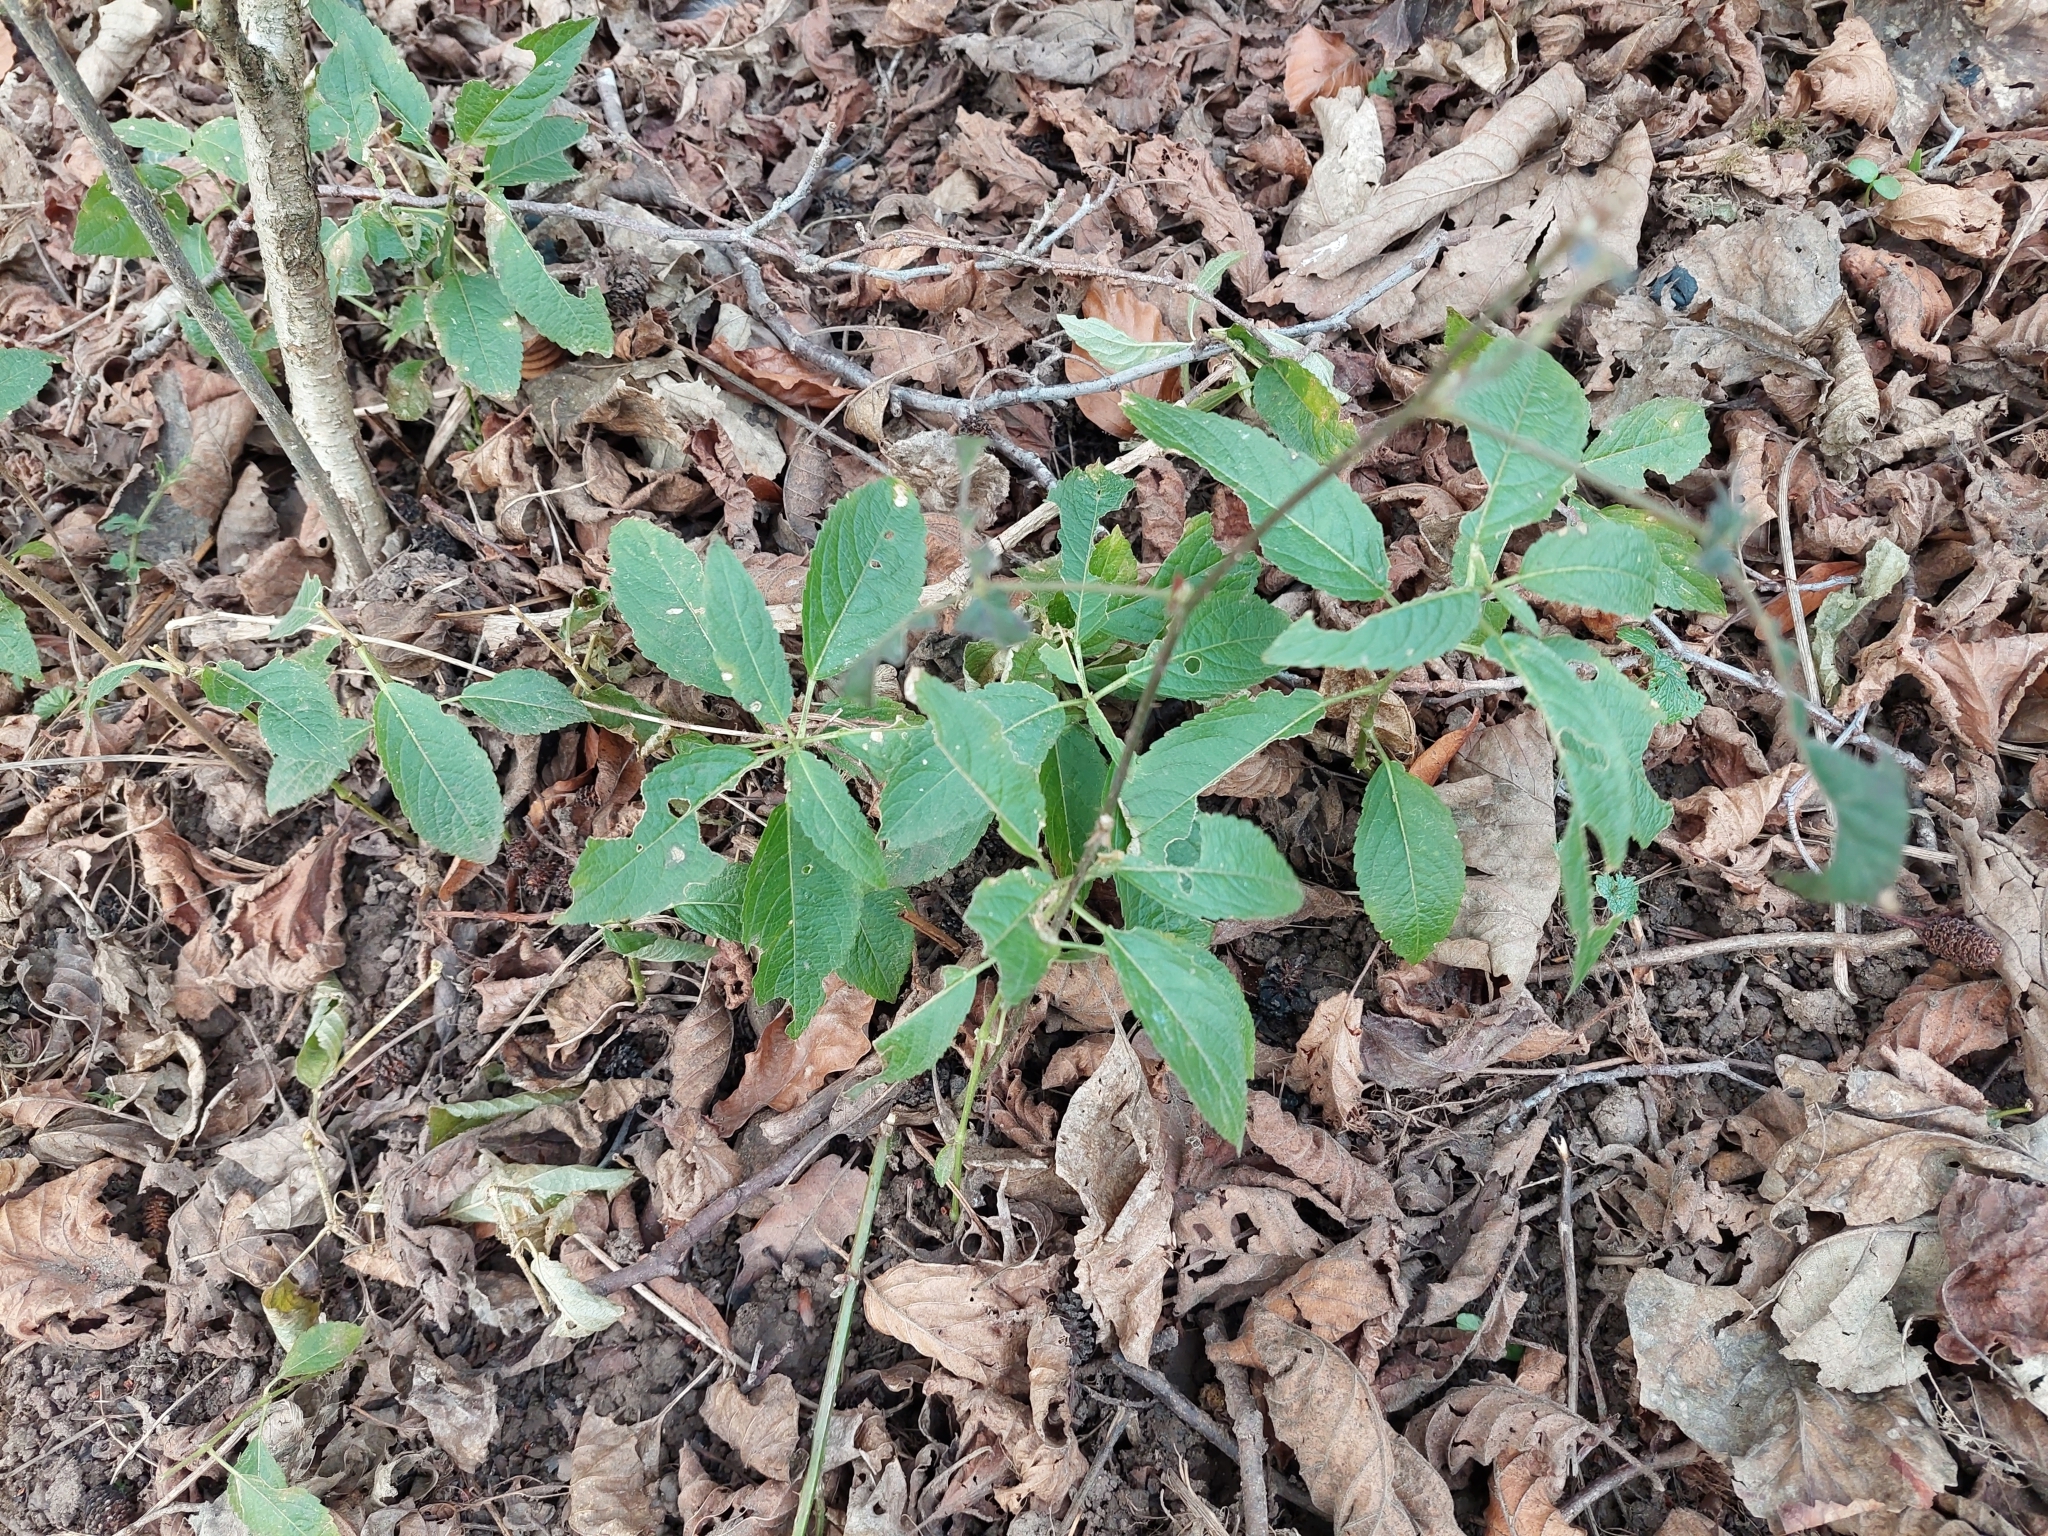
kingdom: Plantae
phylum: Tracheophyta
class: Magnoliopsida
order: Malpighiales
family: Euphorbiaceae
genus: Mercurialis
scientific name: Mercurialis perennis
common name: Dog mercury
